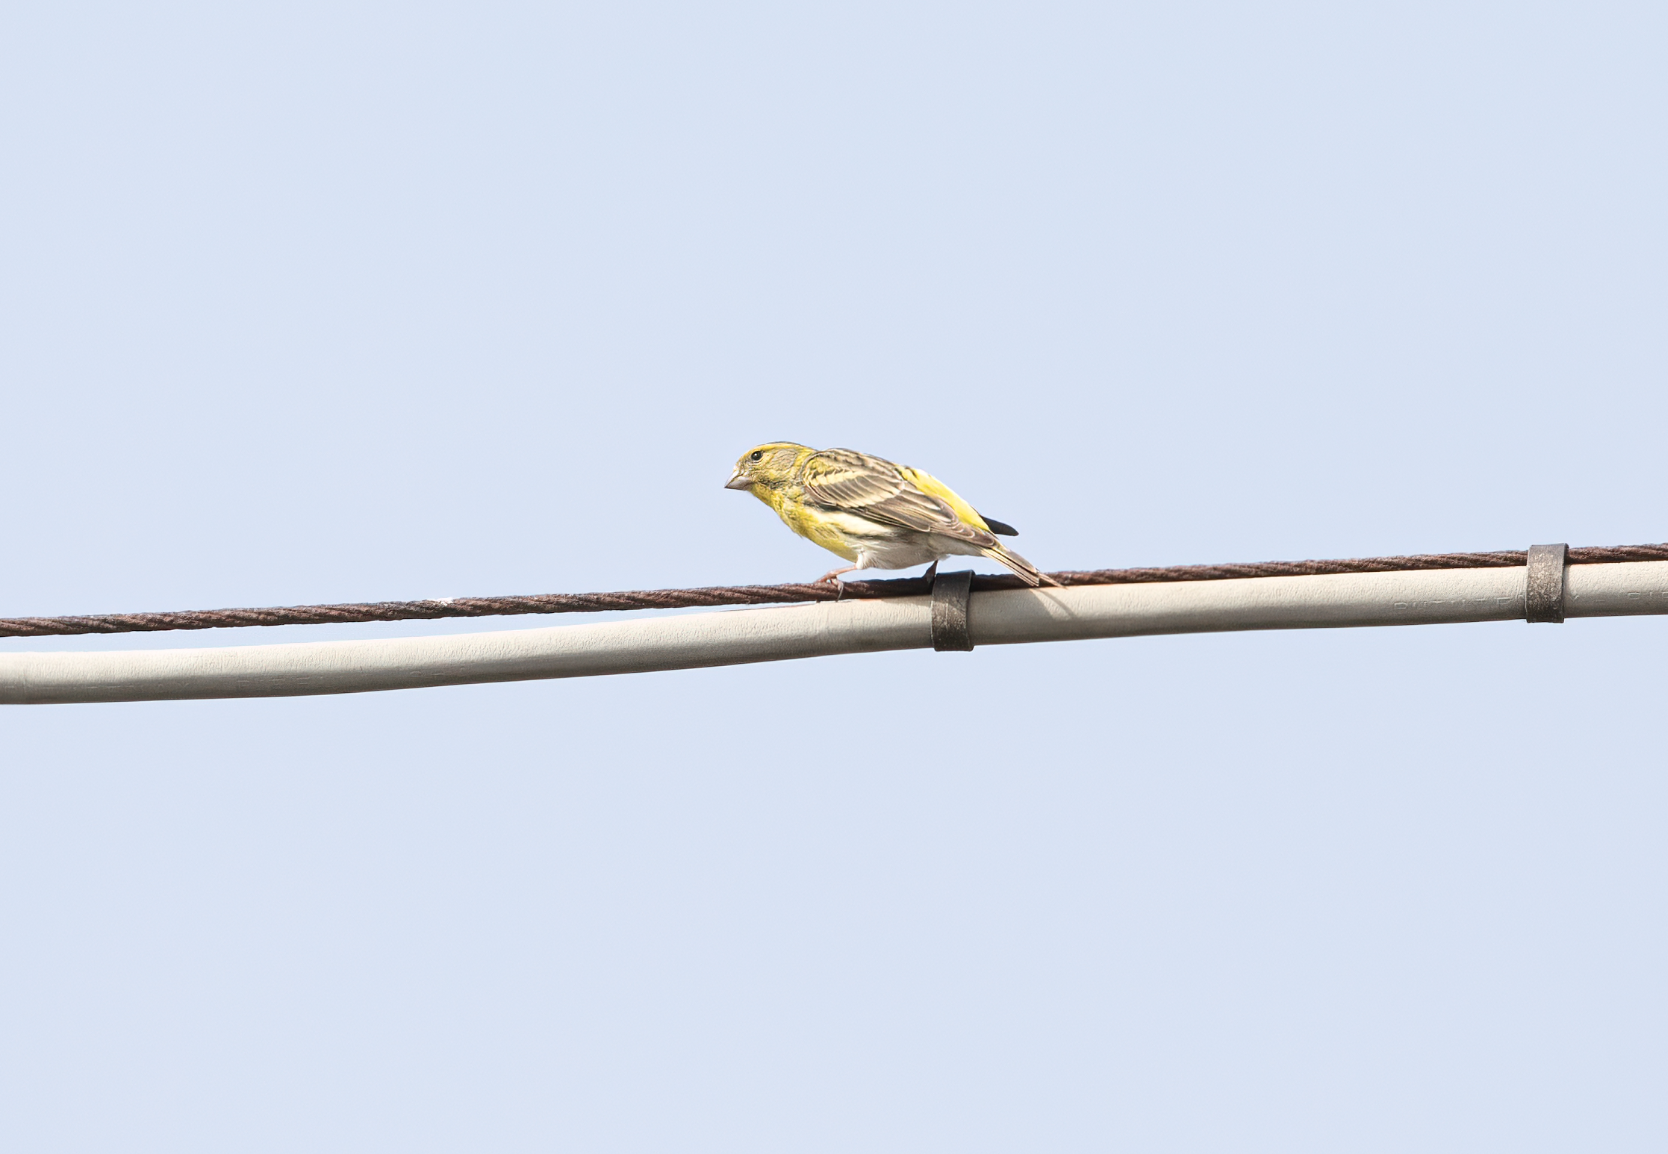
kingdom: Animalia
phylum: Chordata
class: Aves
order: Passeriformes
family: Fringillidae
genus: Serinus
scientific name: Serinus serinus
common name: European serin
